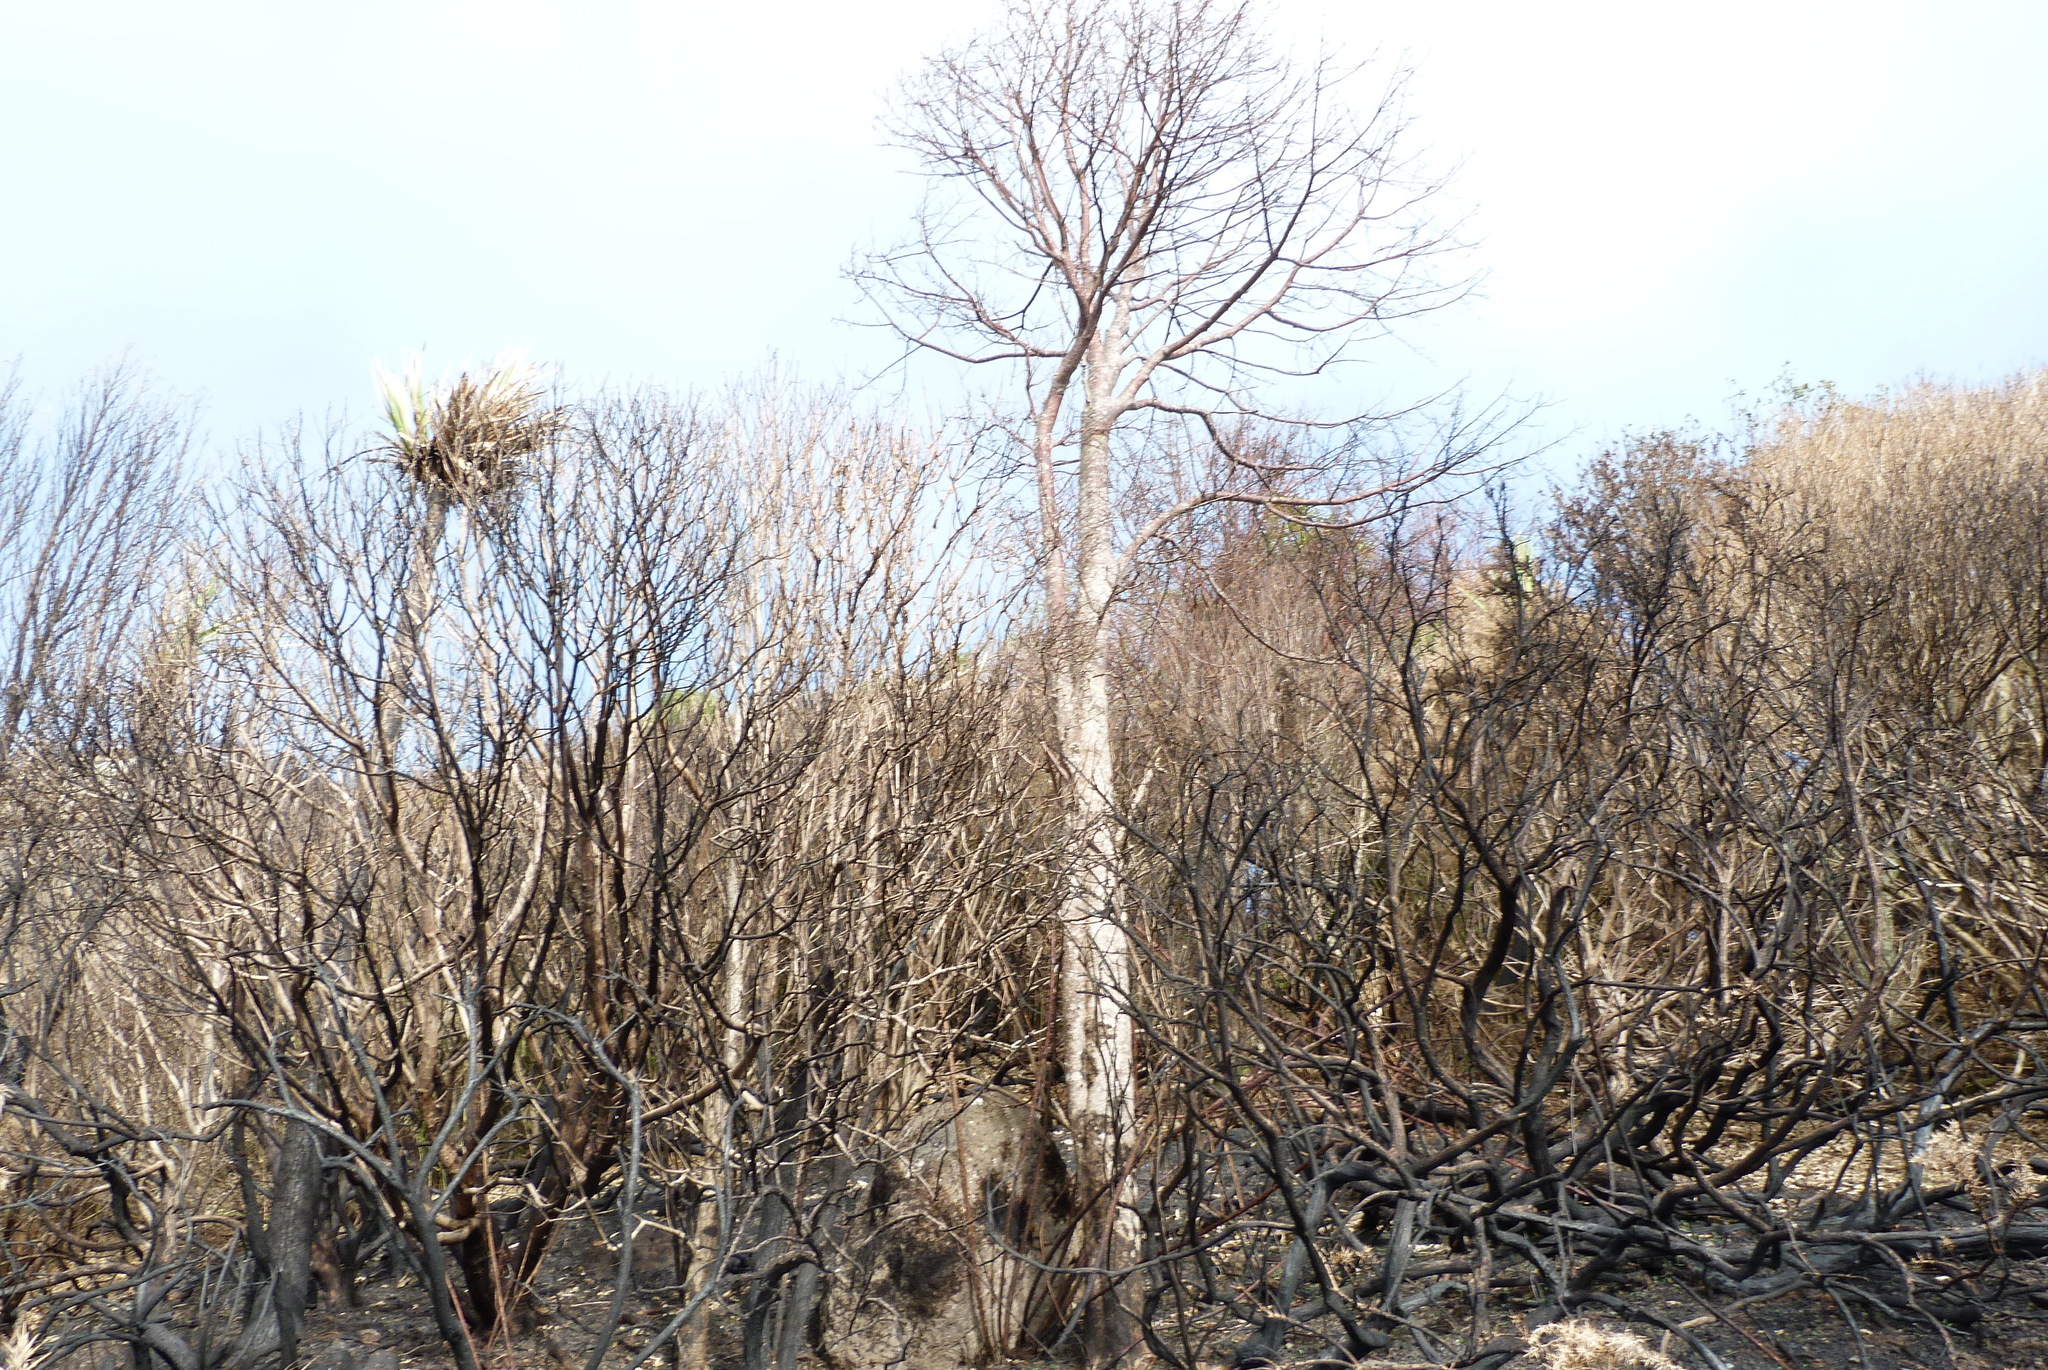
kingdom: Plantae
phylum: Tracheophyta
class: Magnoliopsida
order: Malvales
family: Malvaceae
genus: Plagianthus
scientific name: Plagianthus regius
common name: Manatu
